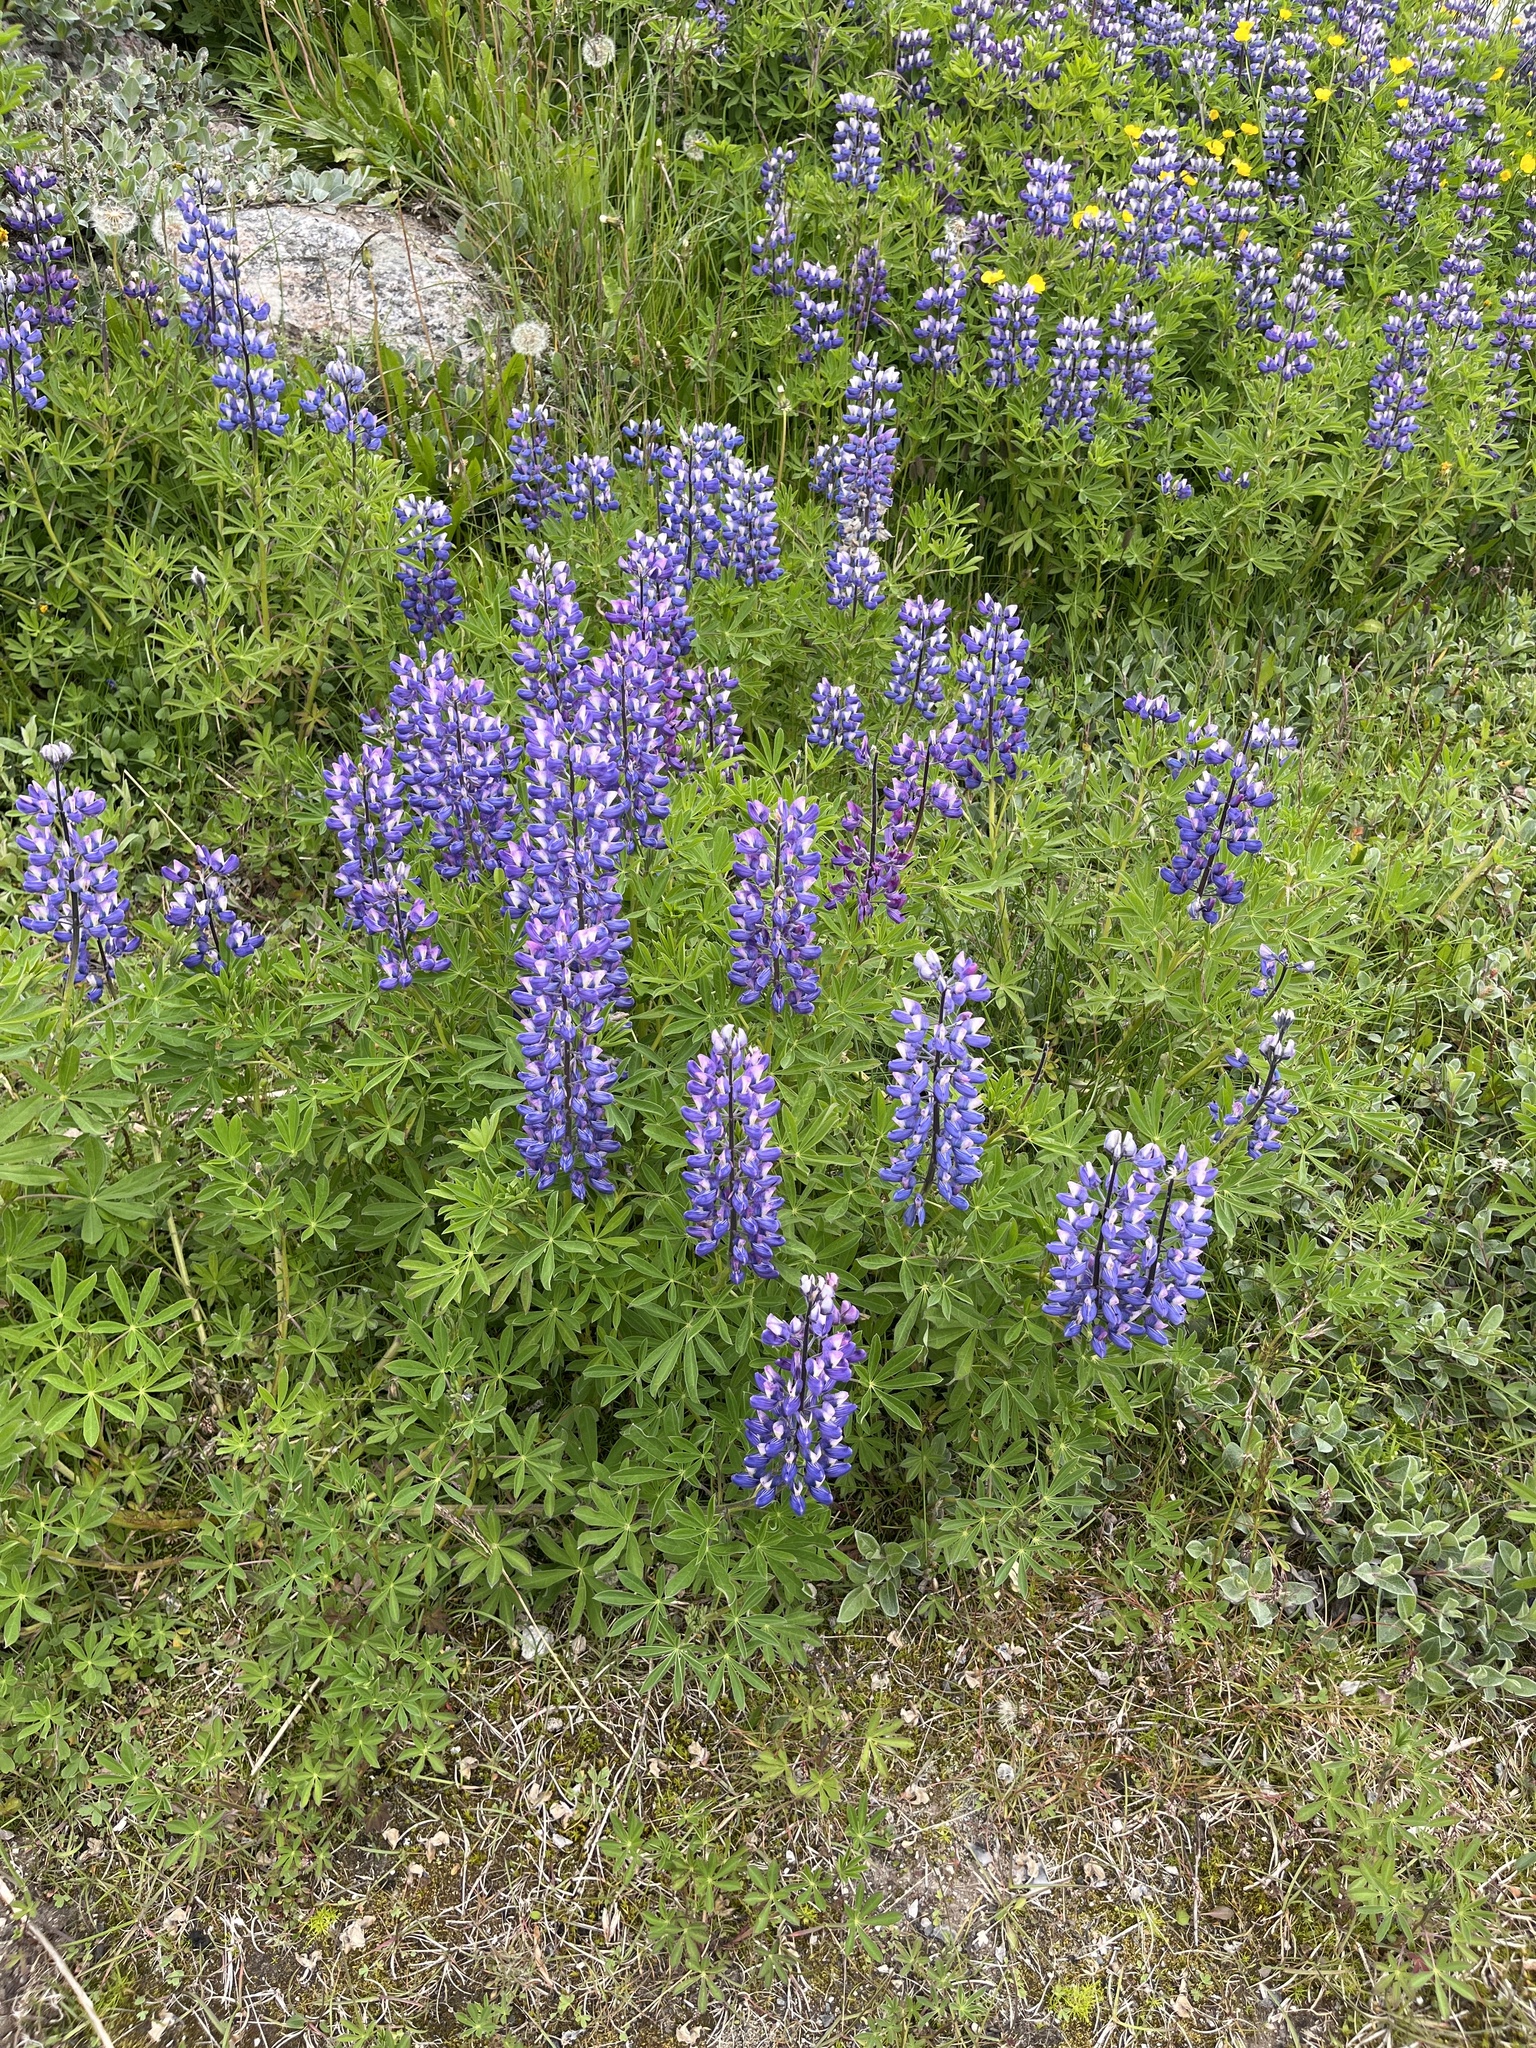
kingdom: Plantae
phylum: Tracheophyta
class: Magnoliopsida
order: Fabales
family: Fabaceae
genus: Lupinus
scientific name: Lupinus nootkatensis
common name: Nootka lupine
